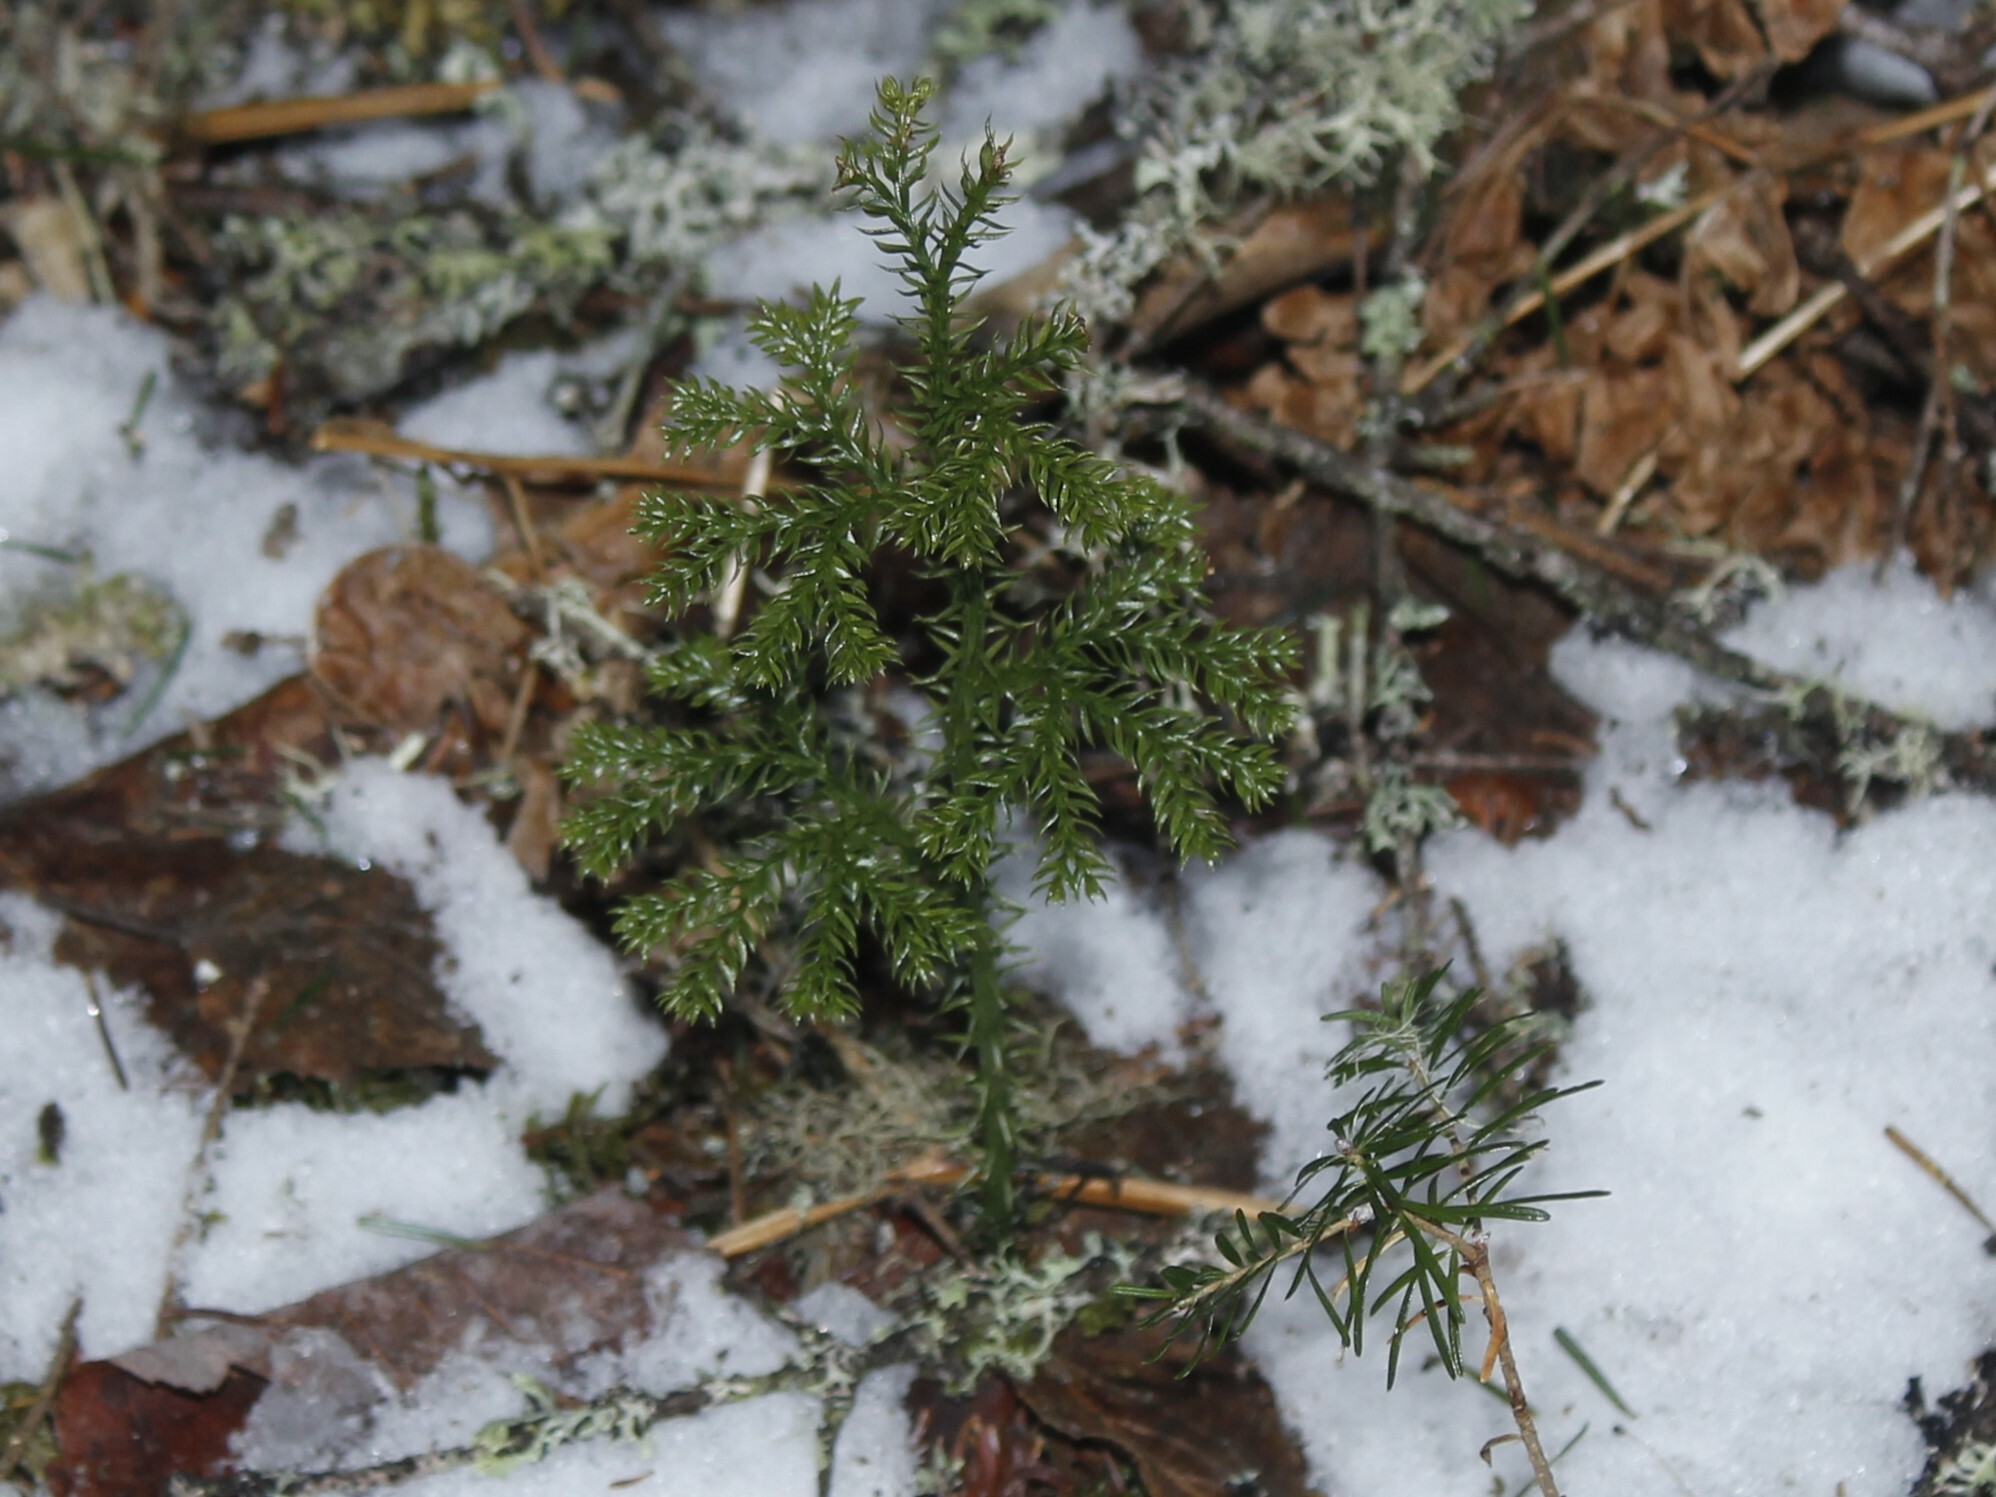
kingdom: Plantae
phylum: Tracheophyta
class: Lycopodiopsida
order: Lycopodiales
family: Lycopodiaceae
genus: Dendrolycopodium
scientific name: Dendrolycopodium dendroideum
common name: Northern tree-clubmoss
